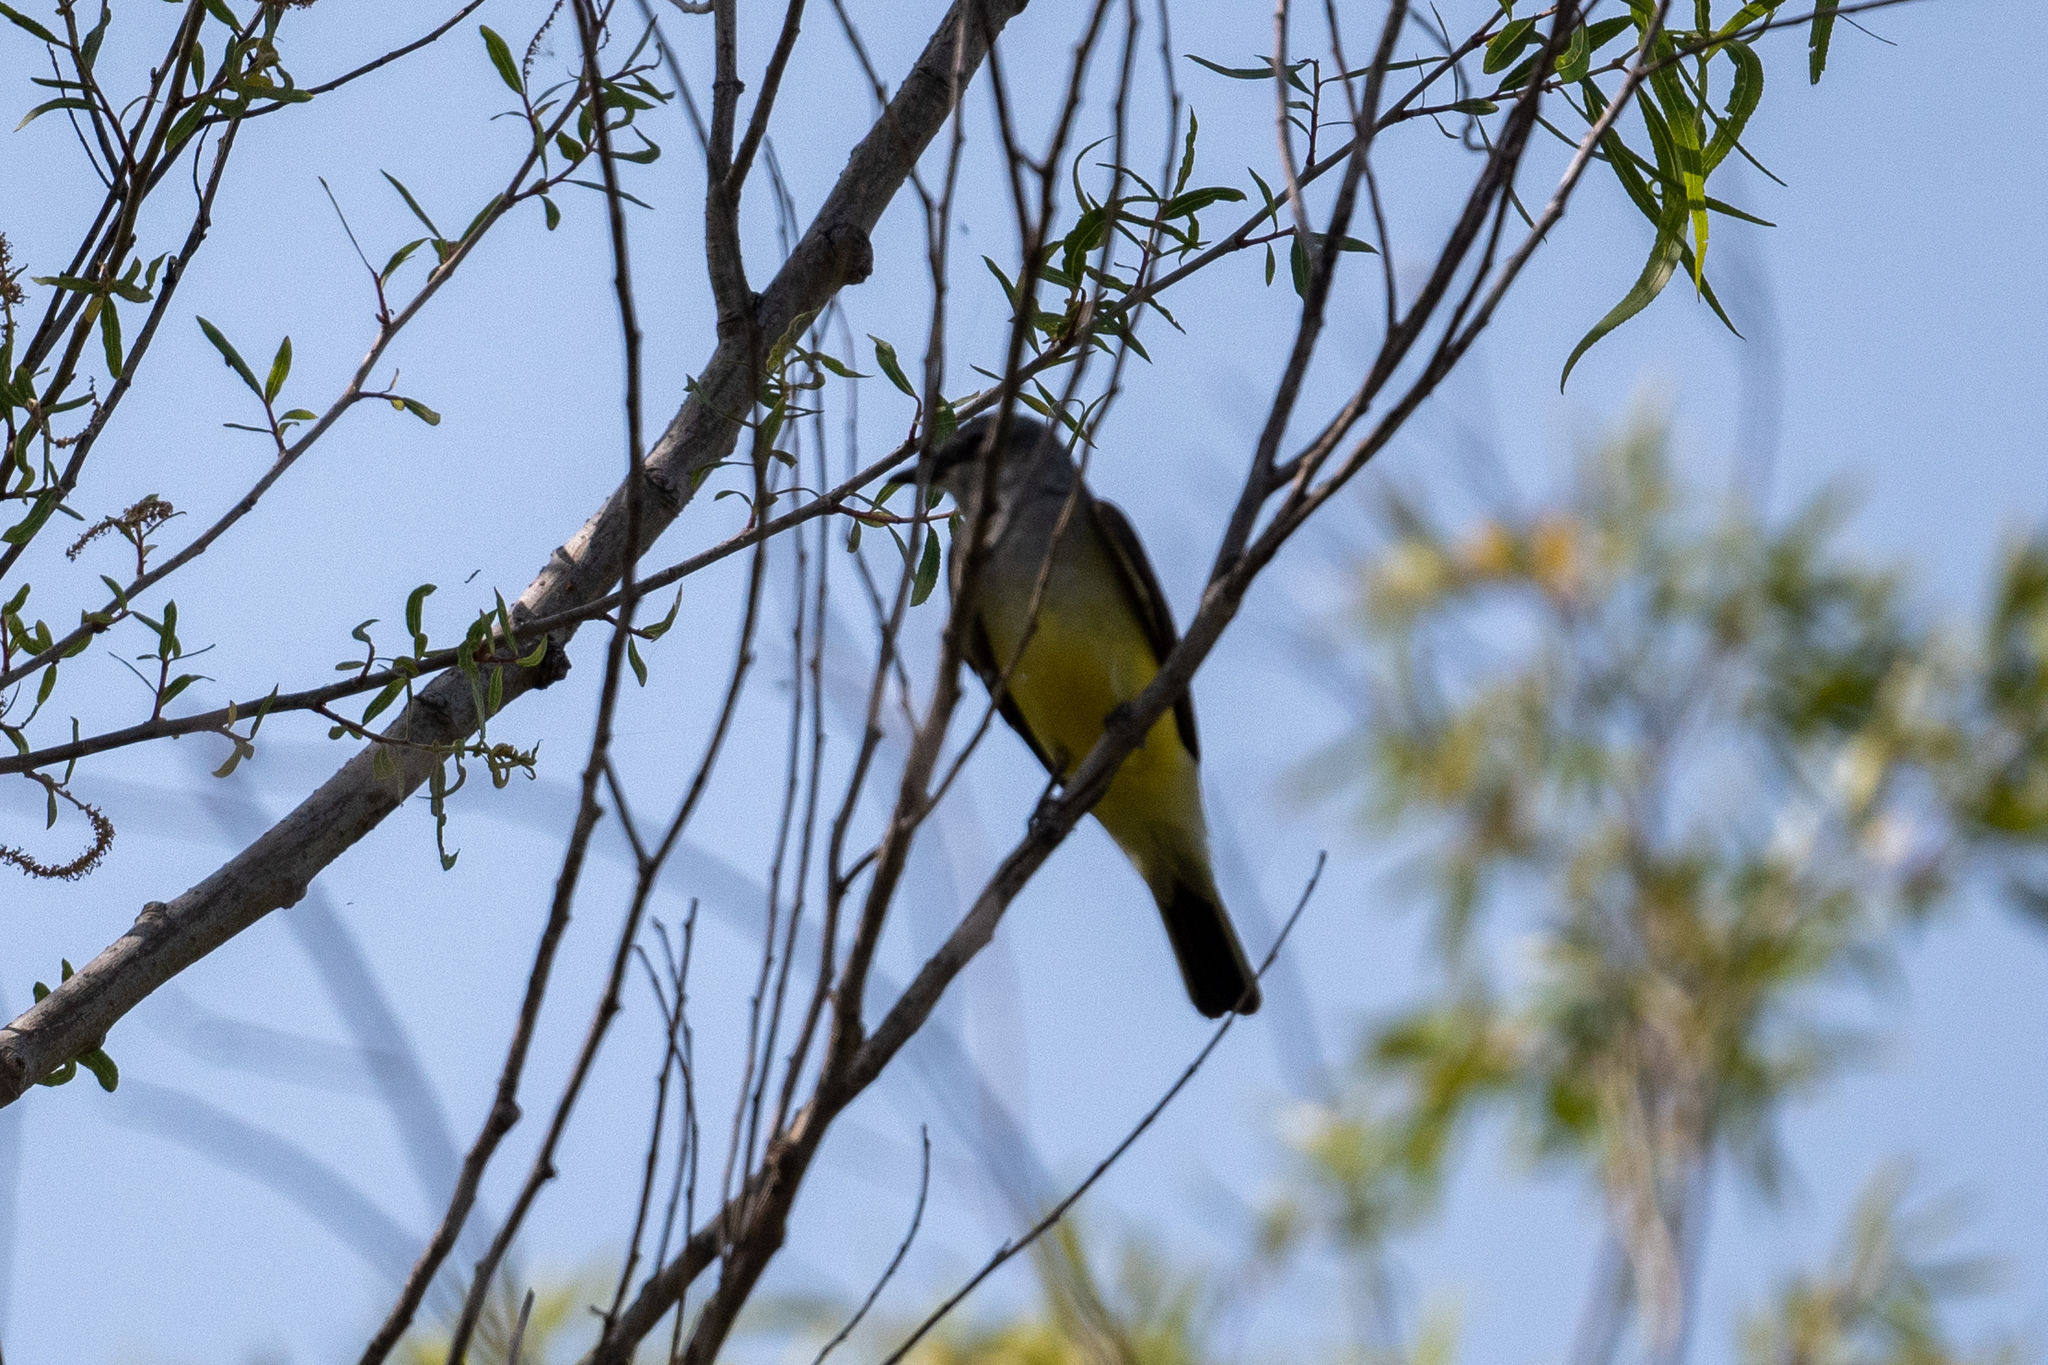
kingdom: Animalia
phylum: Chordata
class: Aves
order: Passeriformes
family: Tyrannidae
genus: Tyrannus
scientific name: Tyrannus verticalis
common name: Western kingbird
